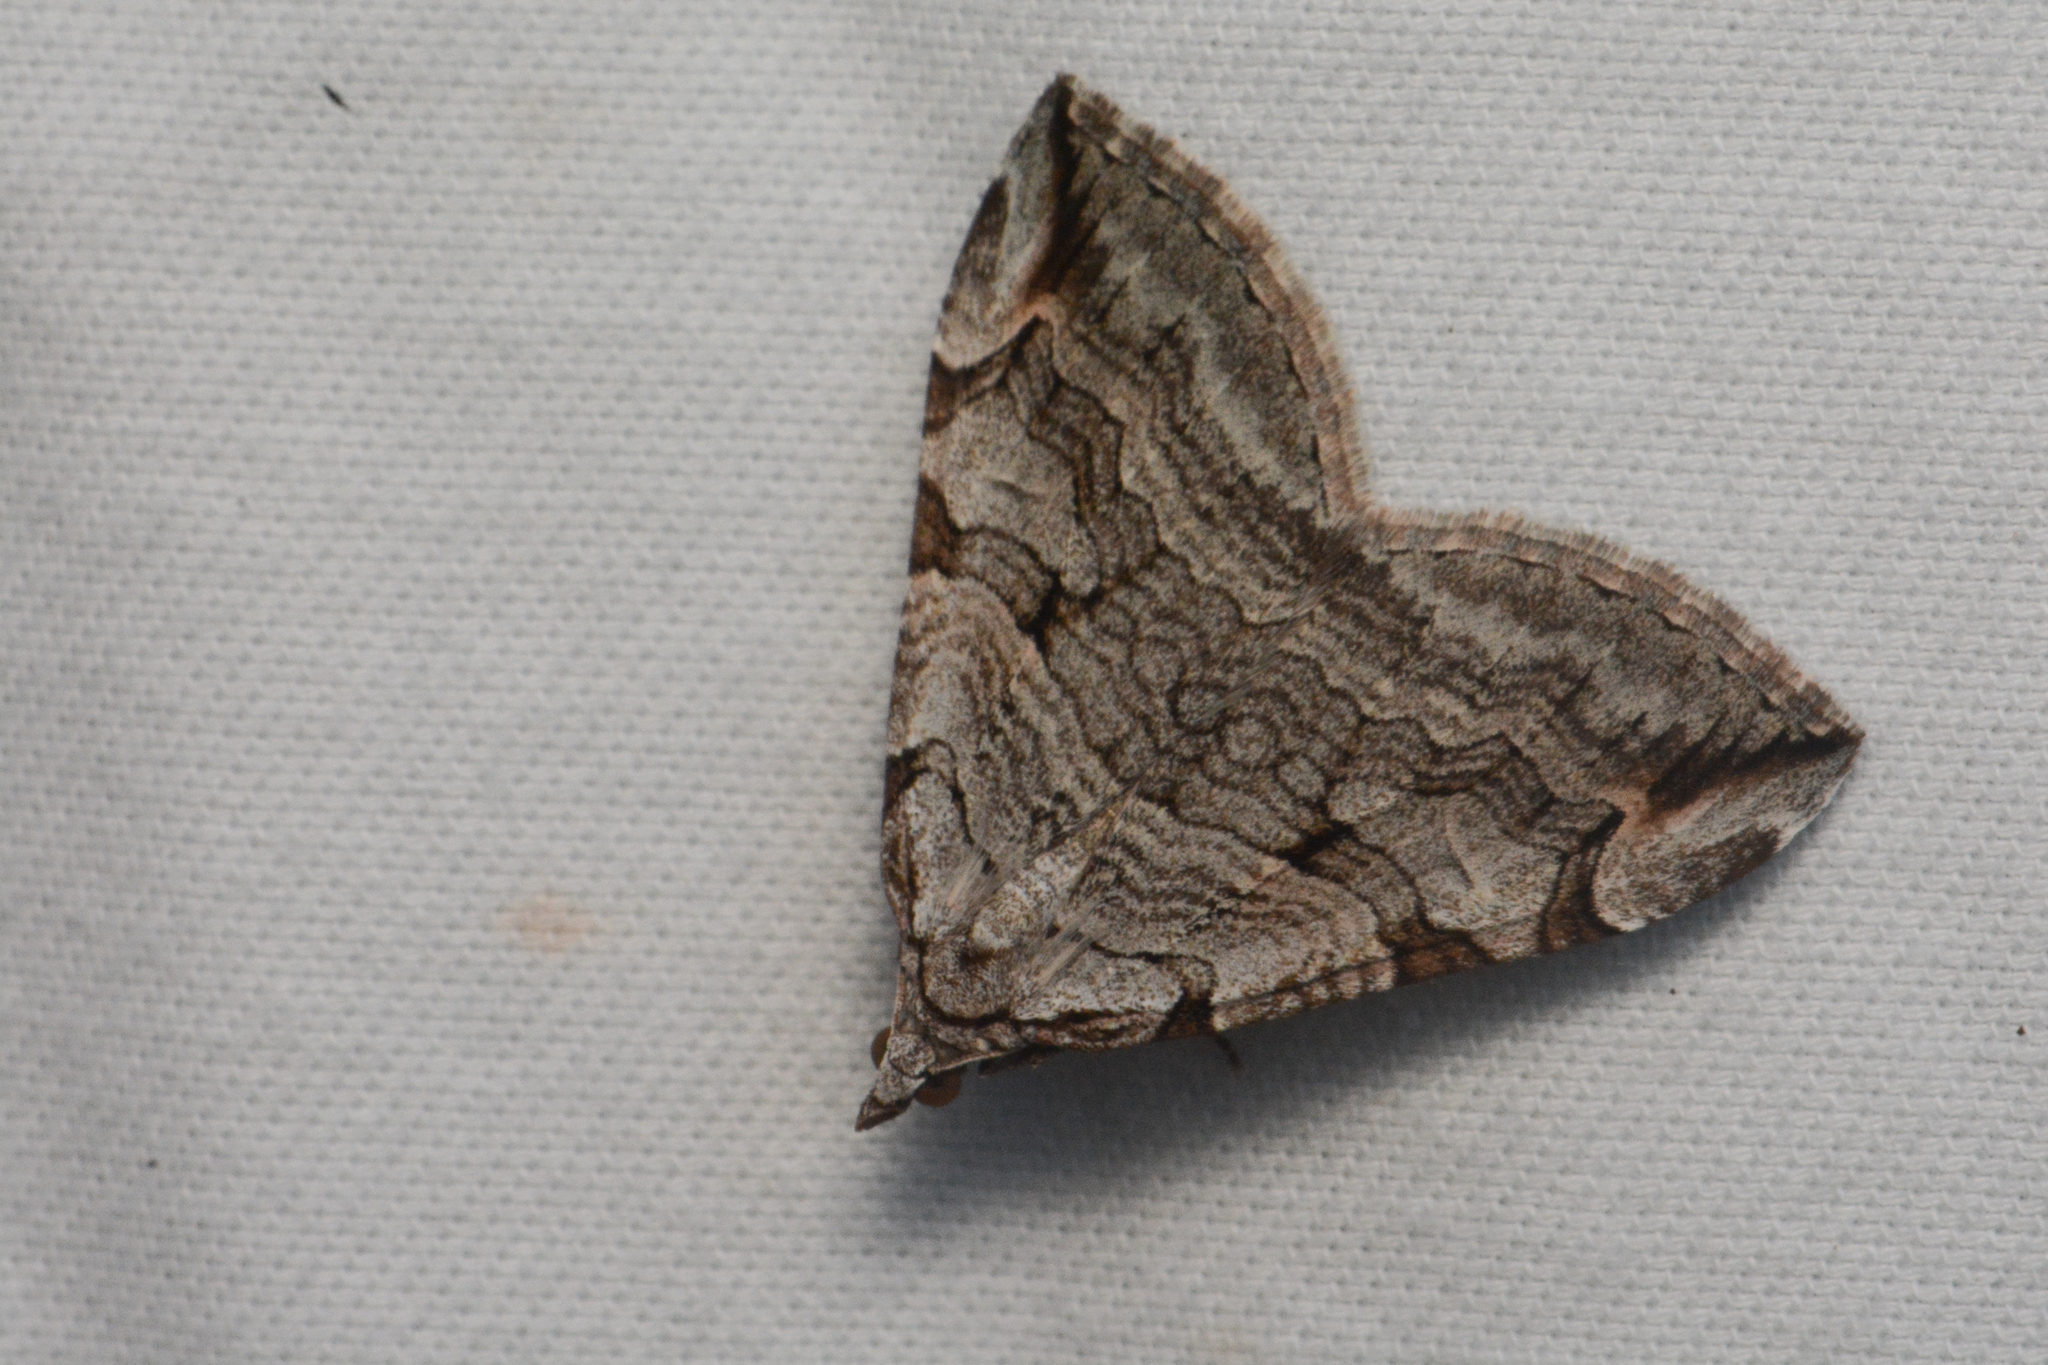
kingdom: Animalia
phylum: Arthropoda
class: Insecta
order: Lepidoptera
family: Geometridae
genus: Aplocera
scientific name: Aplocera plagiata
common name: Treble-bar
